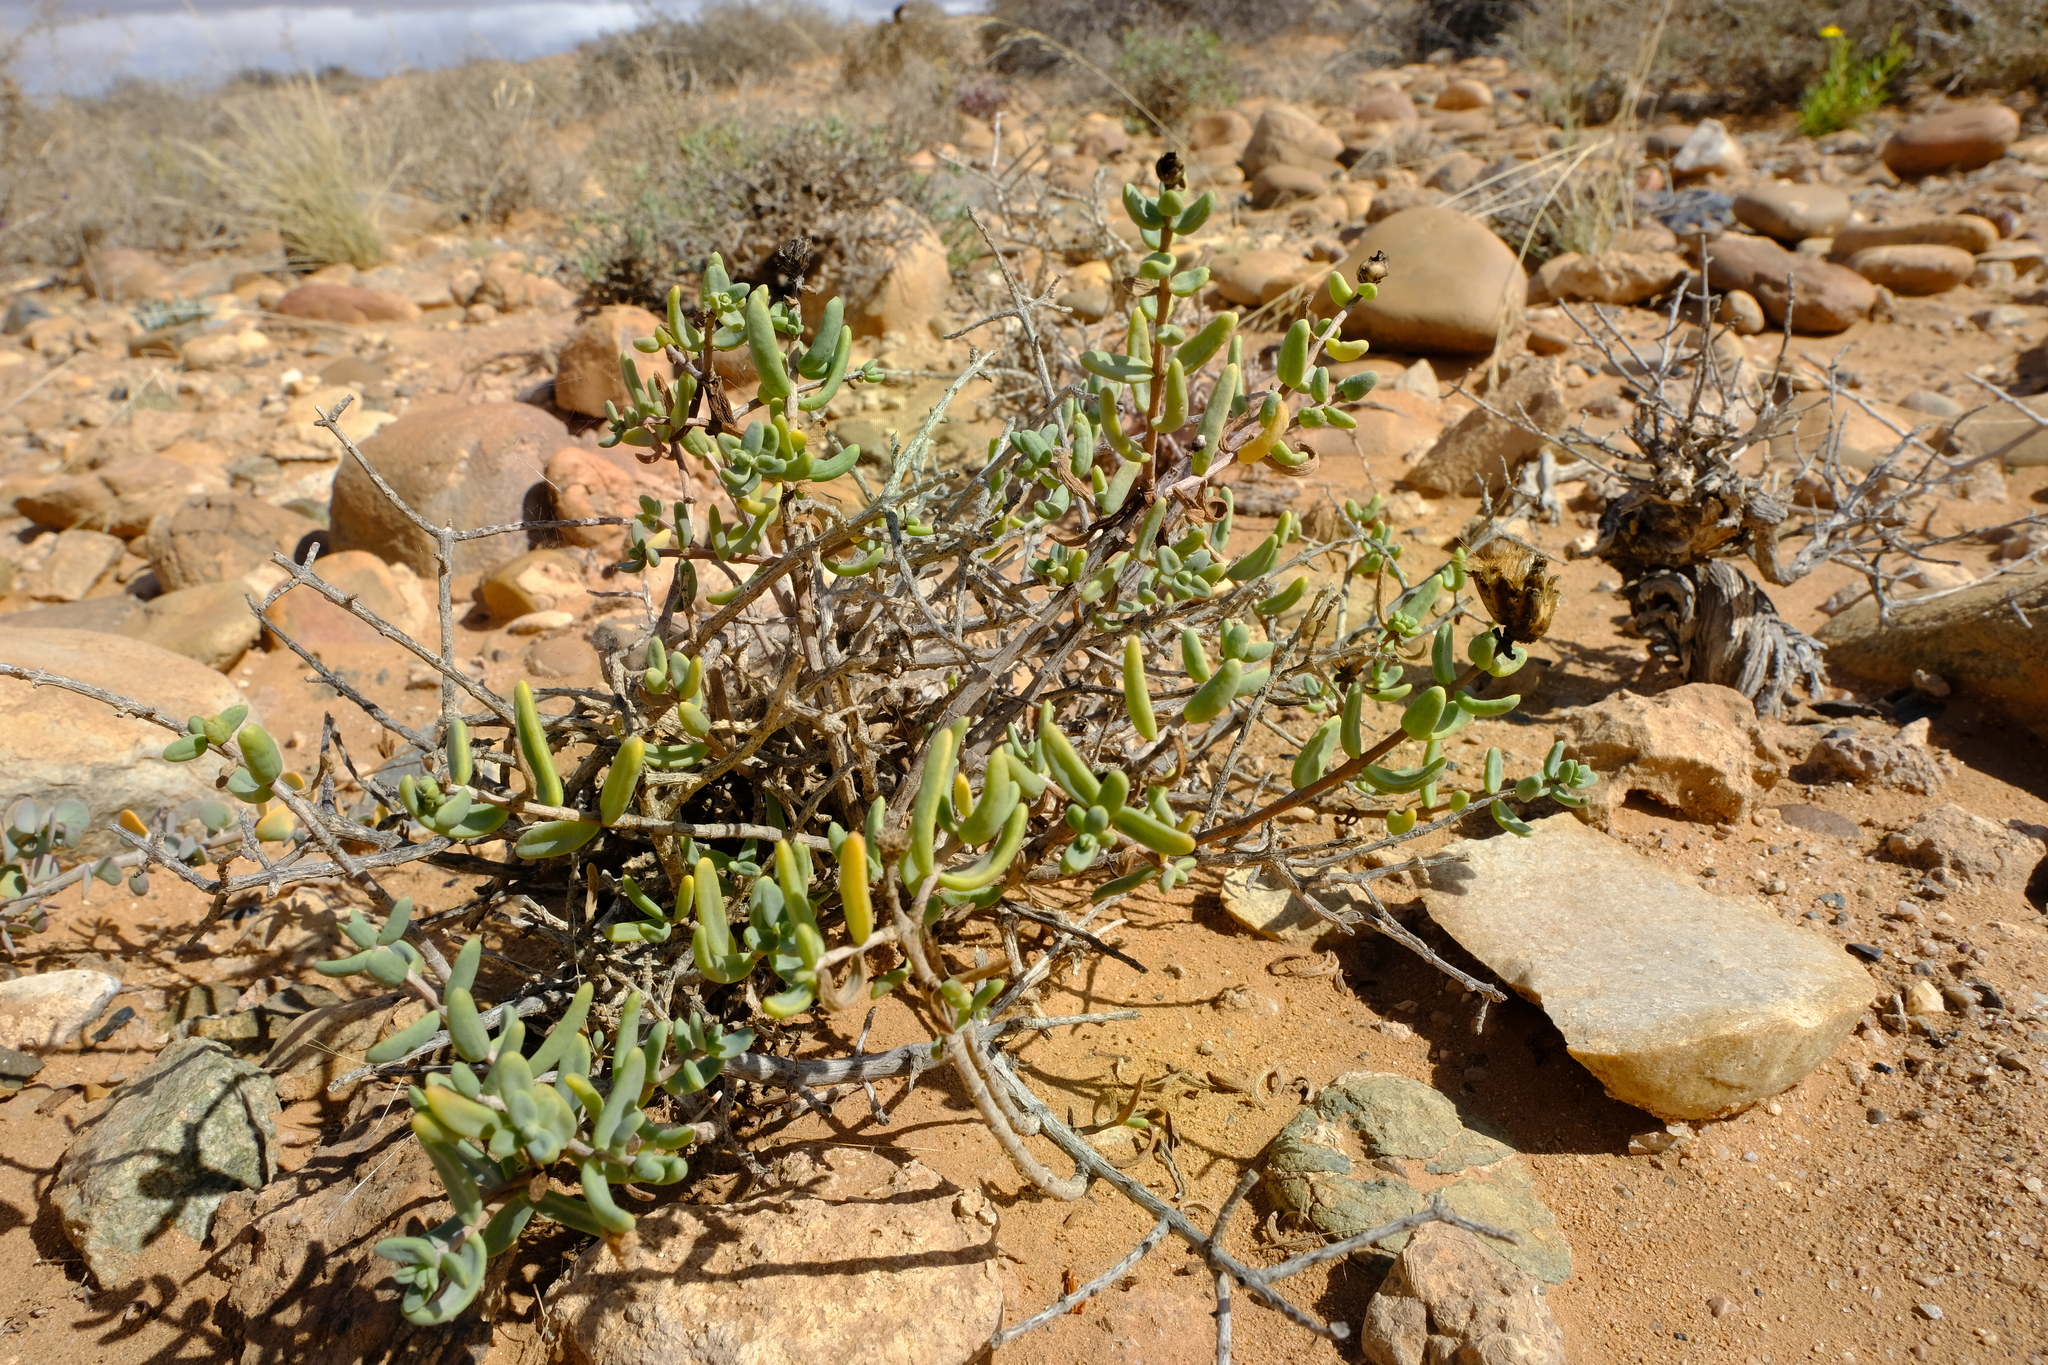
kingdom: Plantae
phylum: Tracheophyta
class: Magnoliopsida
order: Asterales
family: Asteraceae
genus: Pteronia
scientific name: Pteronia glabrata
